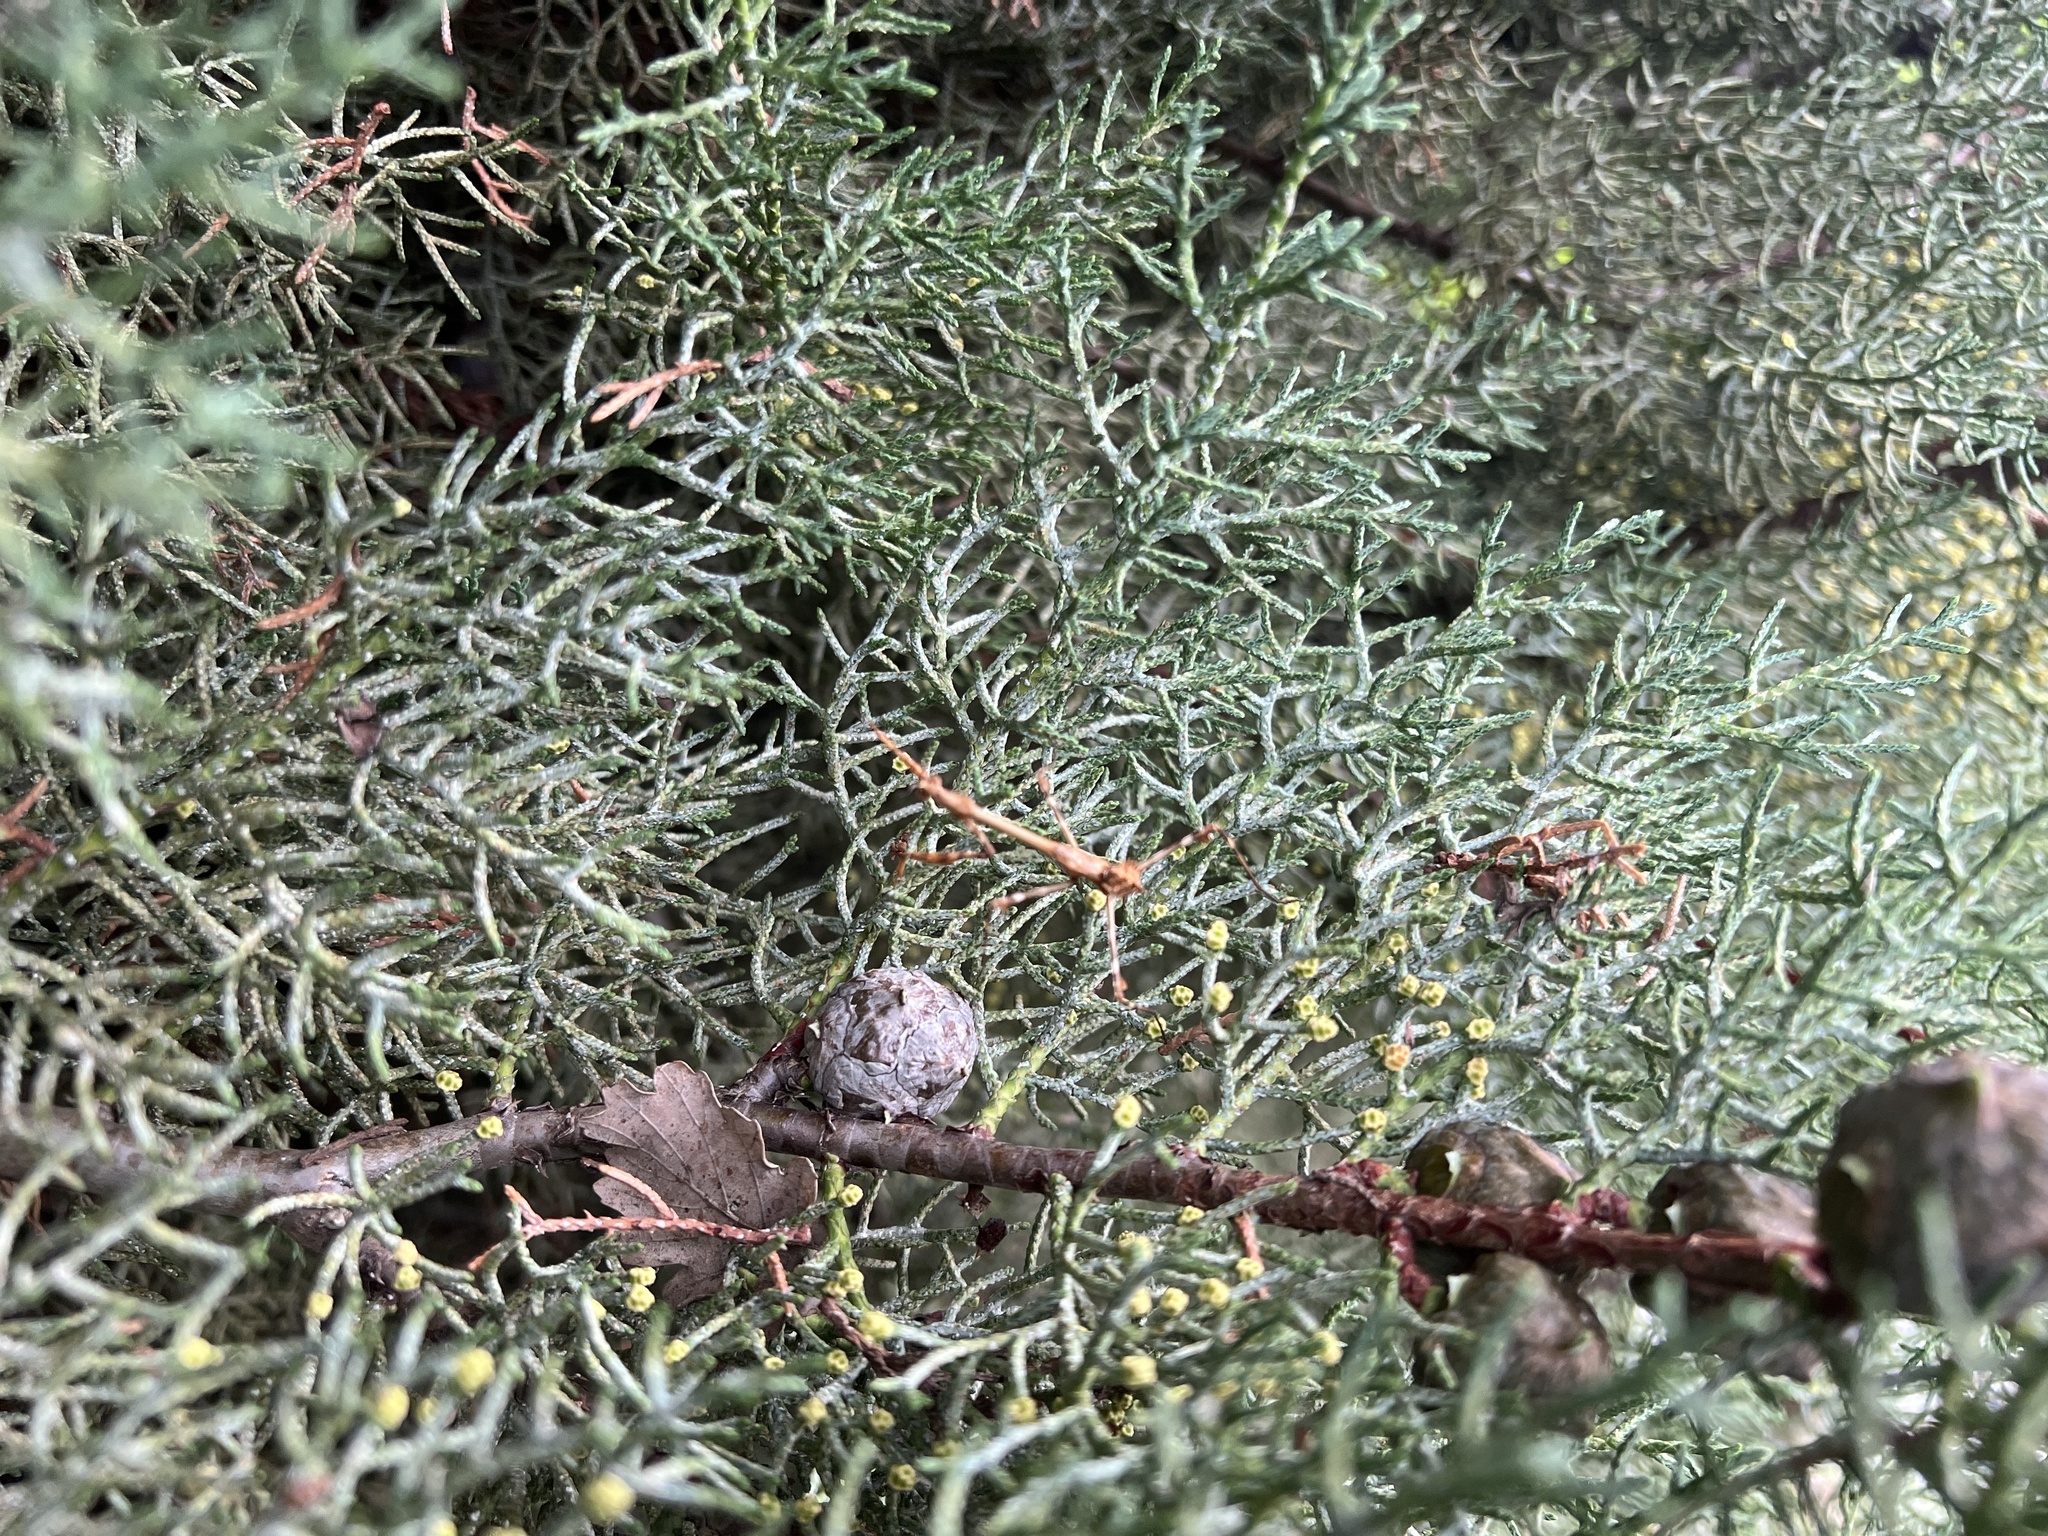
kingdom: Animalia
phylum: Arthropoda
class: Insecta
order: Mantodea
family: Empusidae
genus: Empusa
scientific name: Empusa pennata
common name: Conehead mantis
